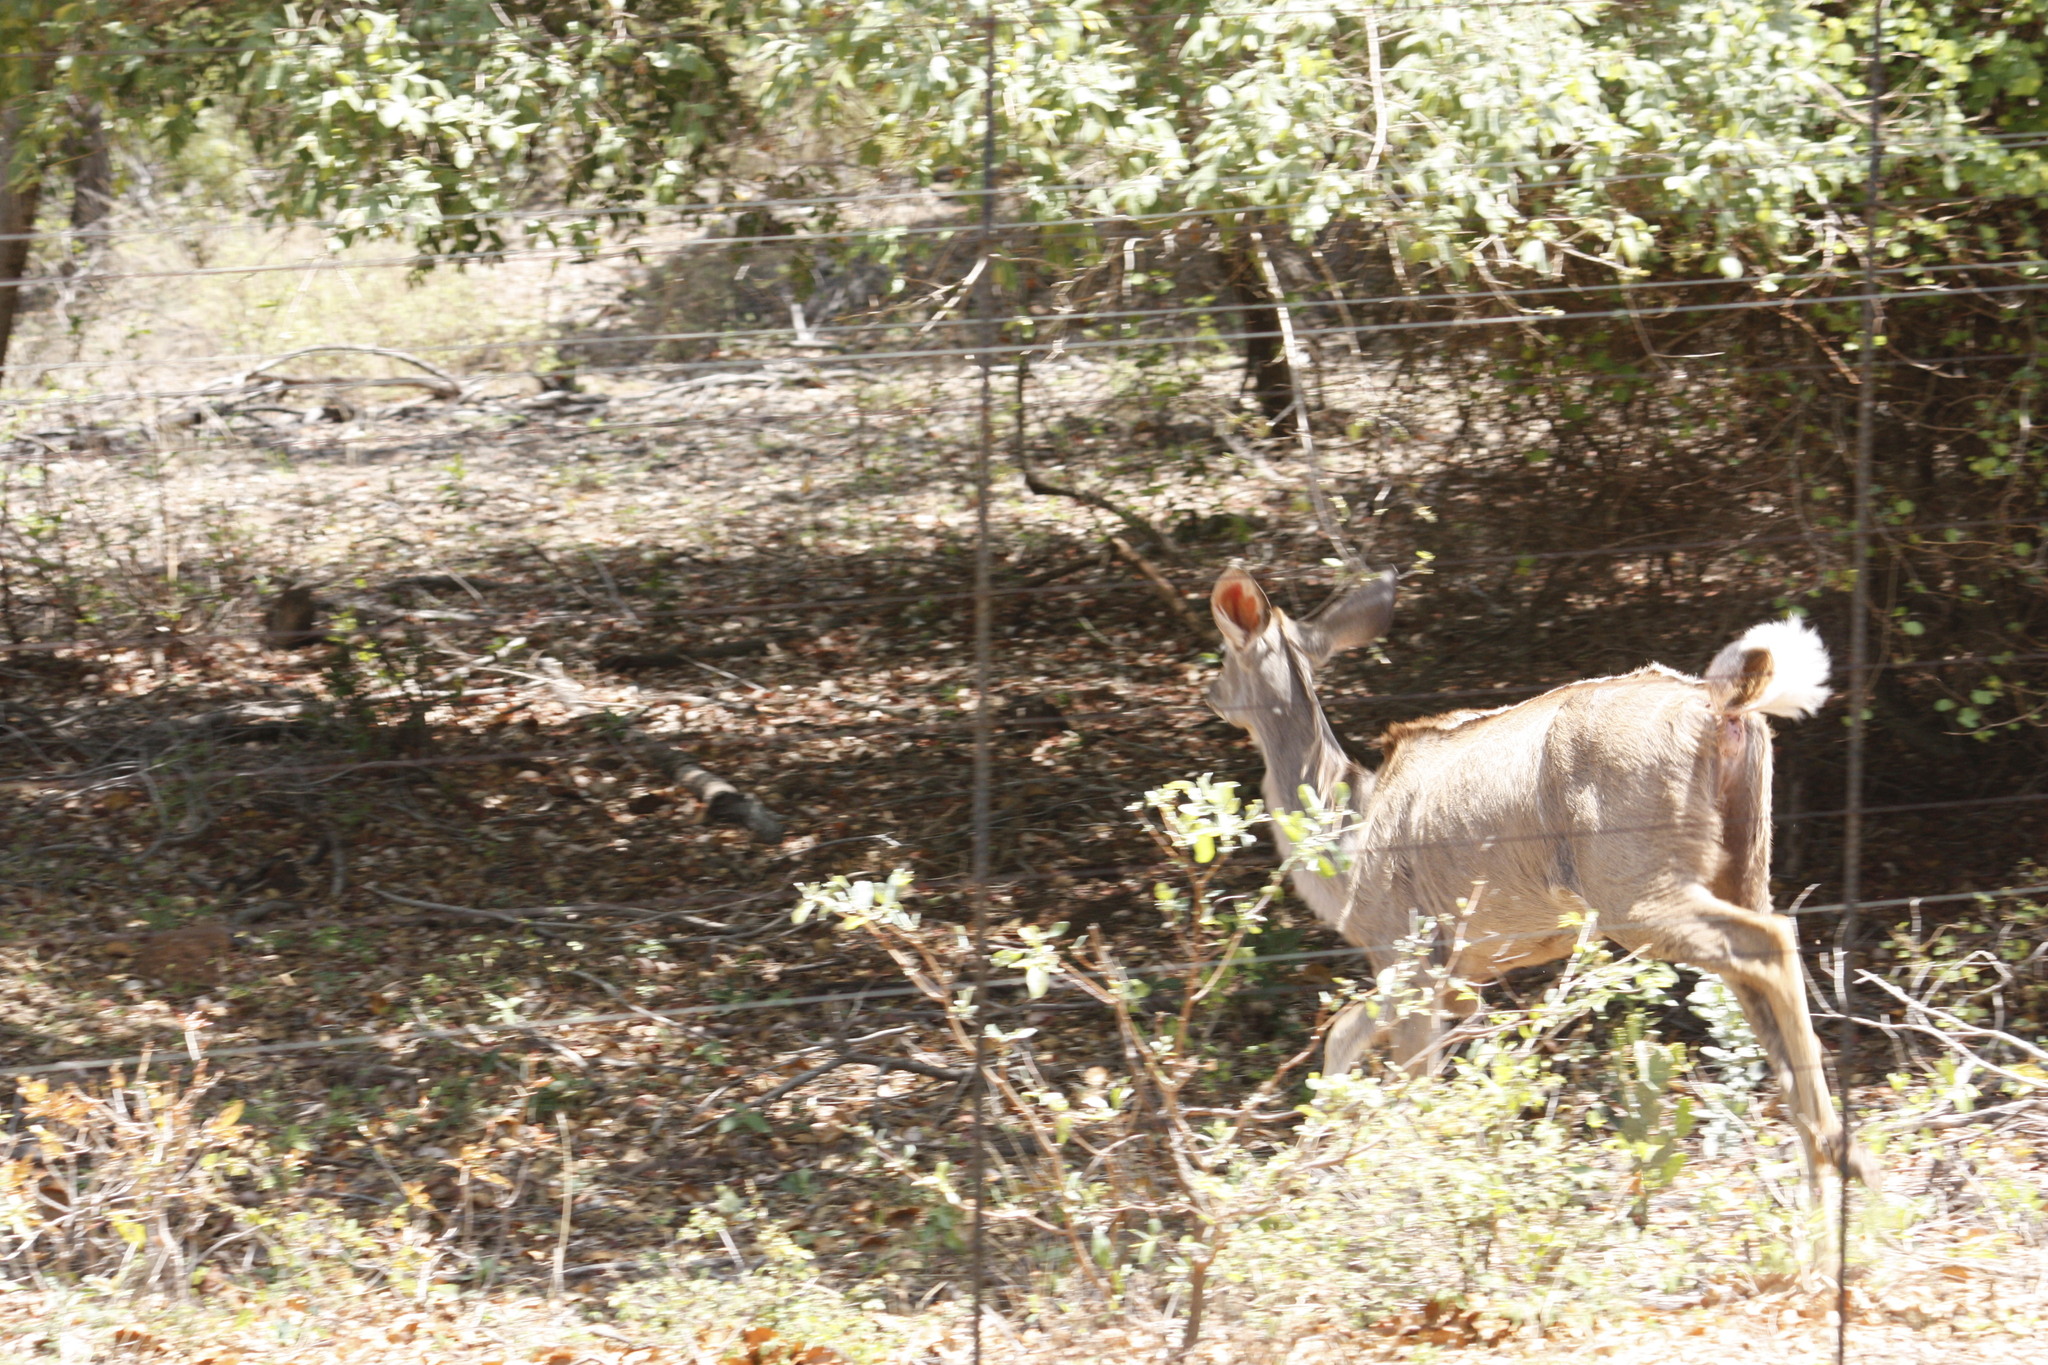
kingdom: Animalia
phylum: Chordata
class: Mammalia
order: Artiodactyla
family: Bovidae
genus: Tragelaphus
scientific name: Tragelaphus strepsiceros
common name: Greater kudu
